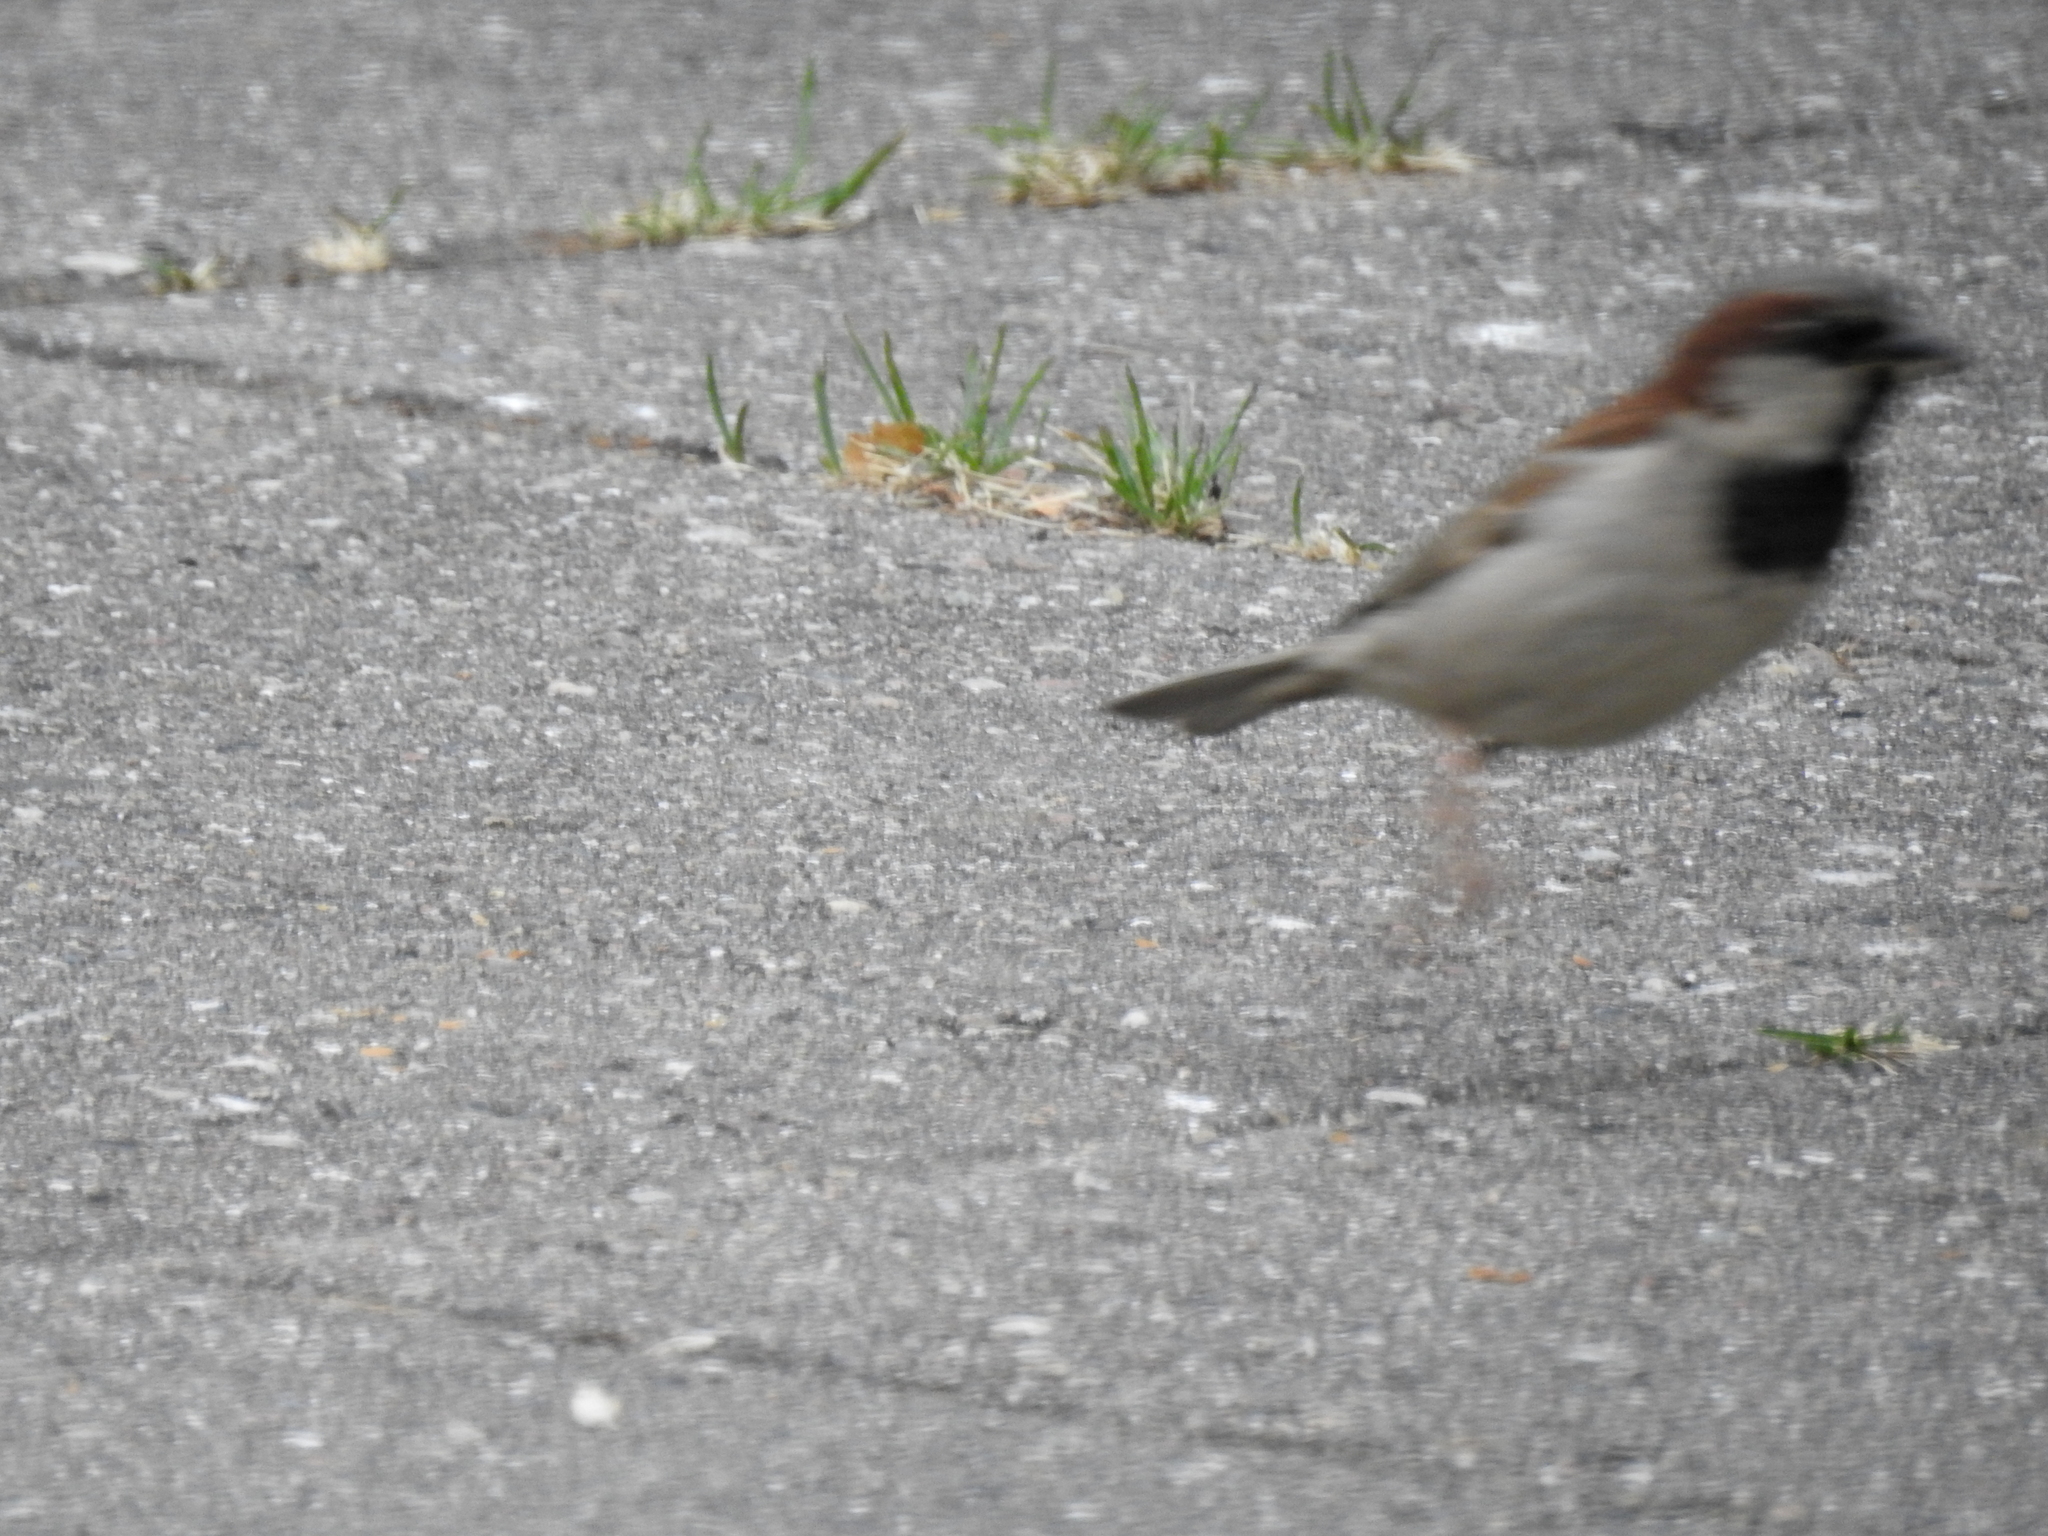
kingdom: Animalia
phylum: Chordata
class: Aves
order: Passeriformes
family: Passeridae
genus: Passer
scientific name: Passer domesticus
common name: House sparrow
